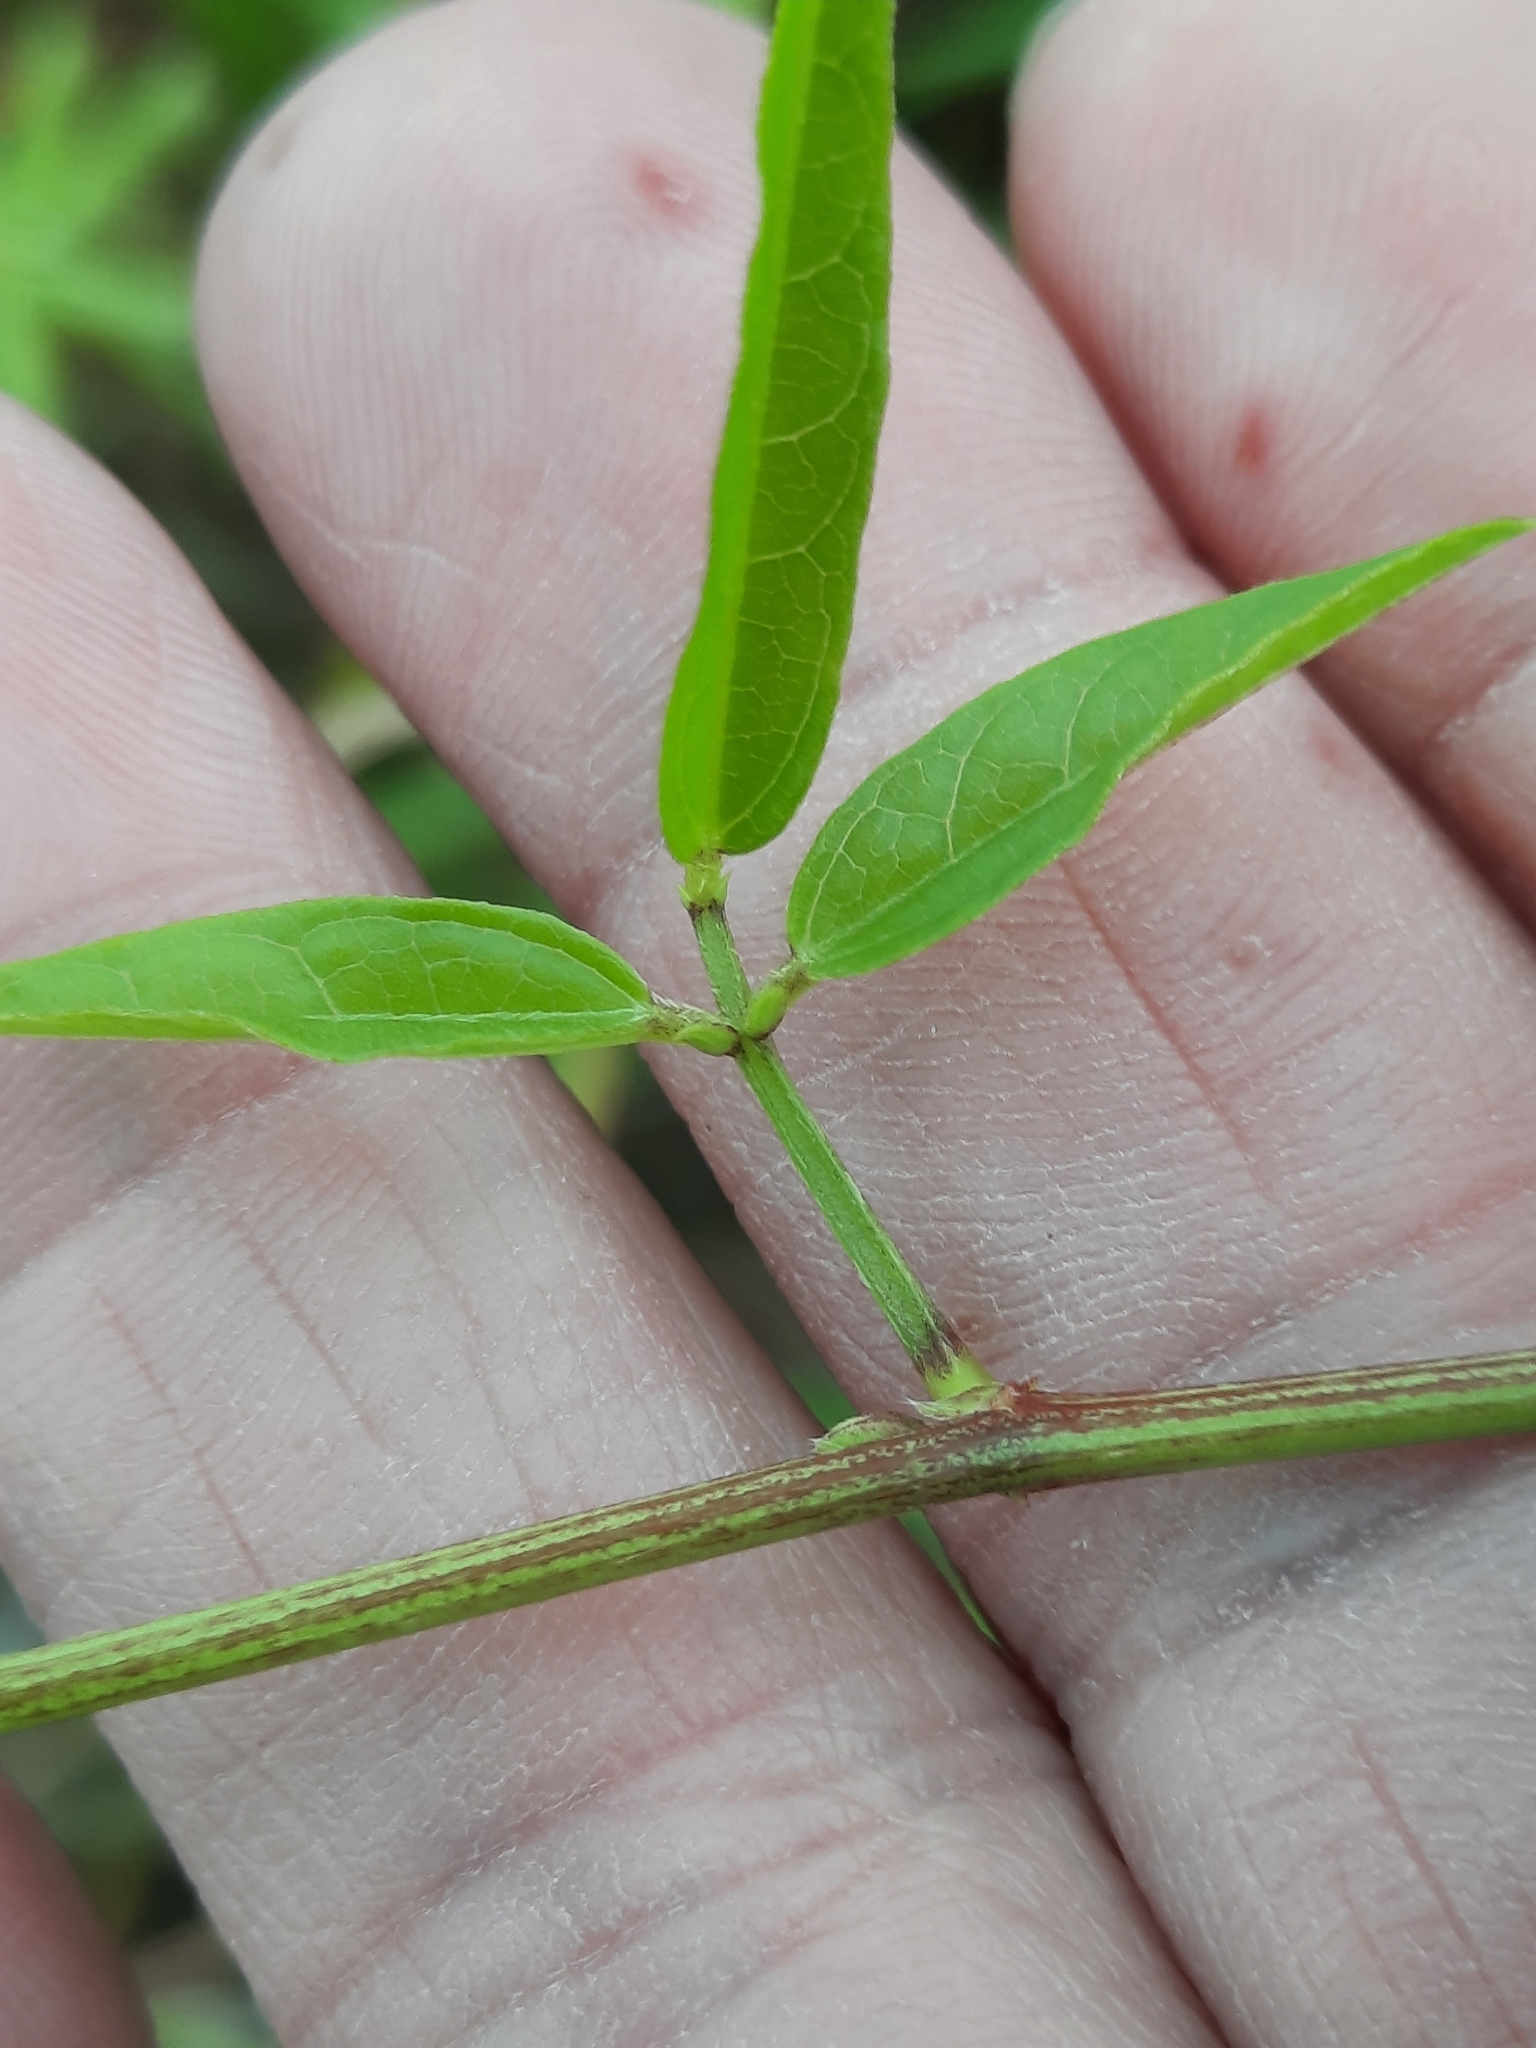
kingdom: Plantae
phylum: Tracheophyta
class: Magnoliopsida
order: Fabales
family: Fabaceae
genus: Vigna
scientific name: Vigna luteola
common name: Hairypod cowpea
